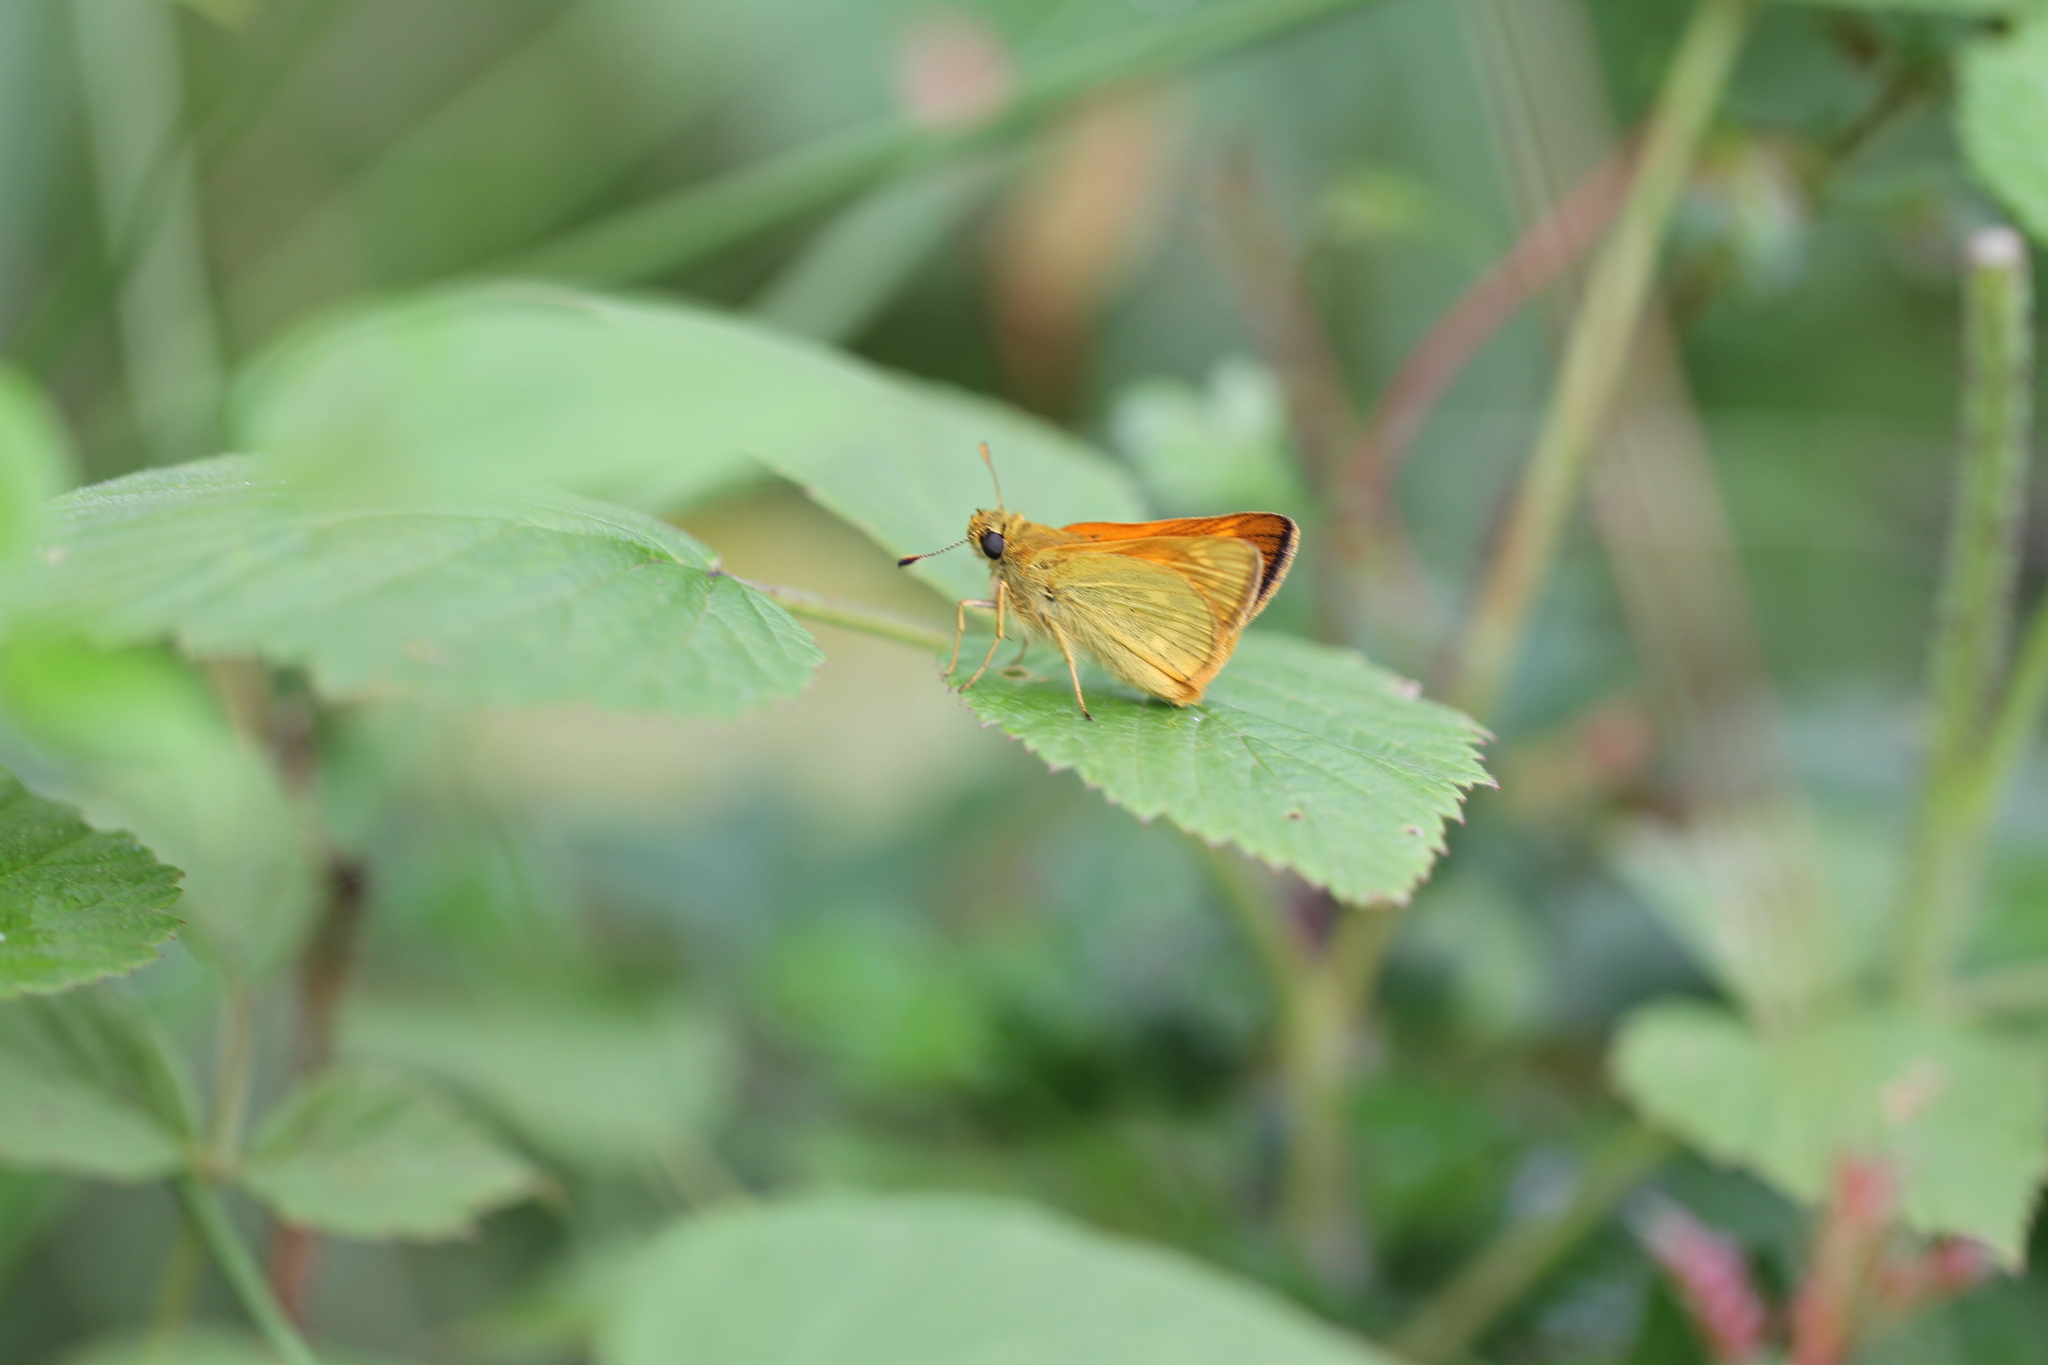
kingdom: Animalia
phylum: Arthropoda
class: Insecta
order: Lepidoptera
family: Hesperiidae
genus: Ochlodes
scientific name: Ochlodes venata
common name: Large skipper
